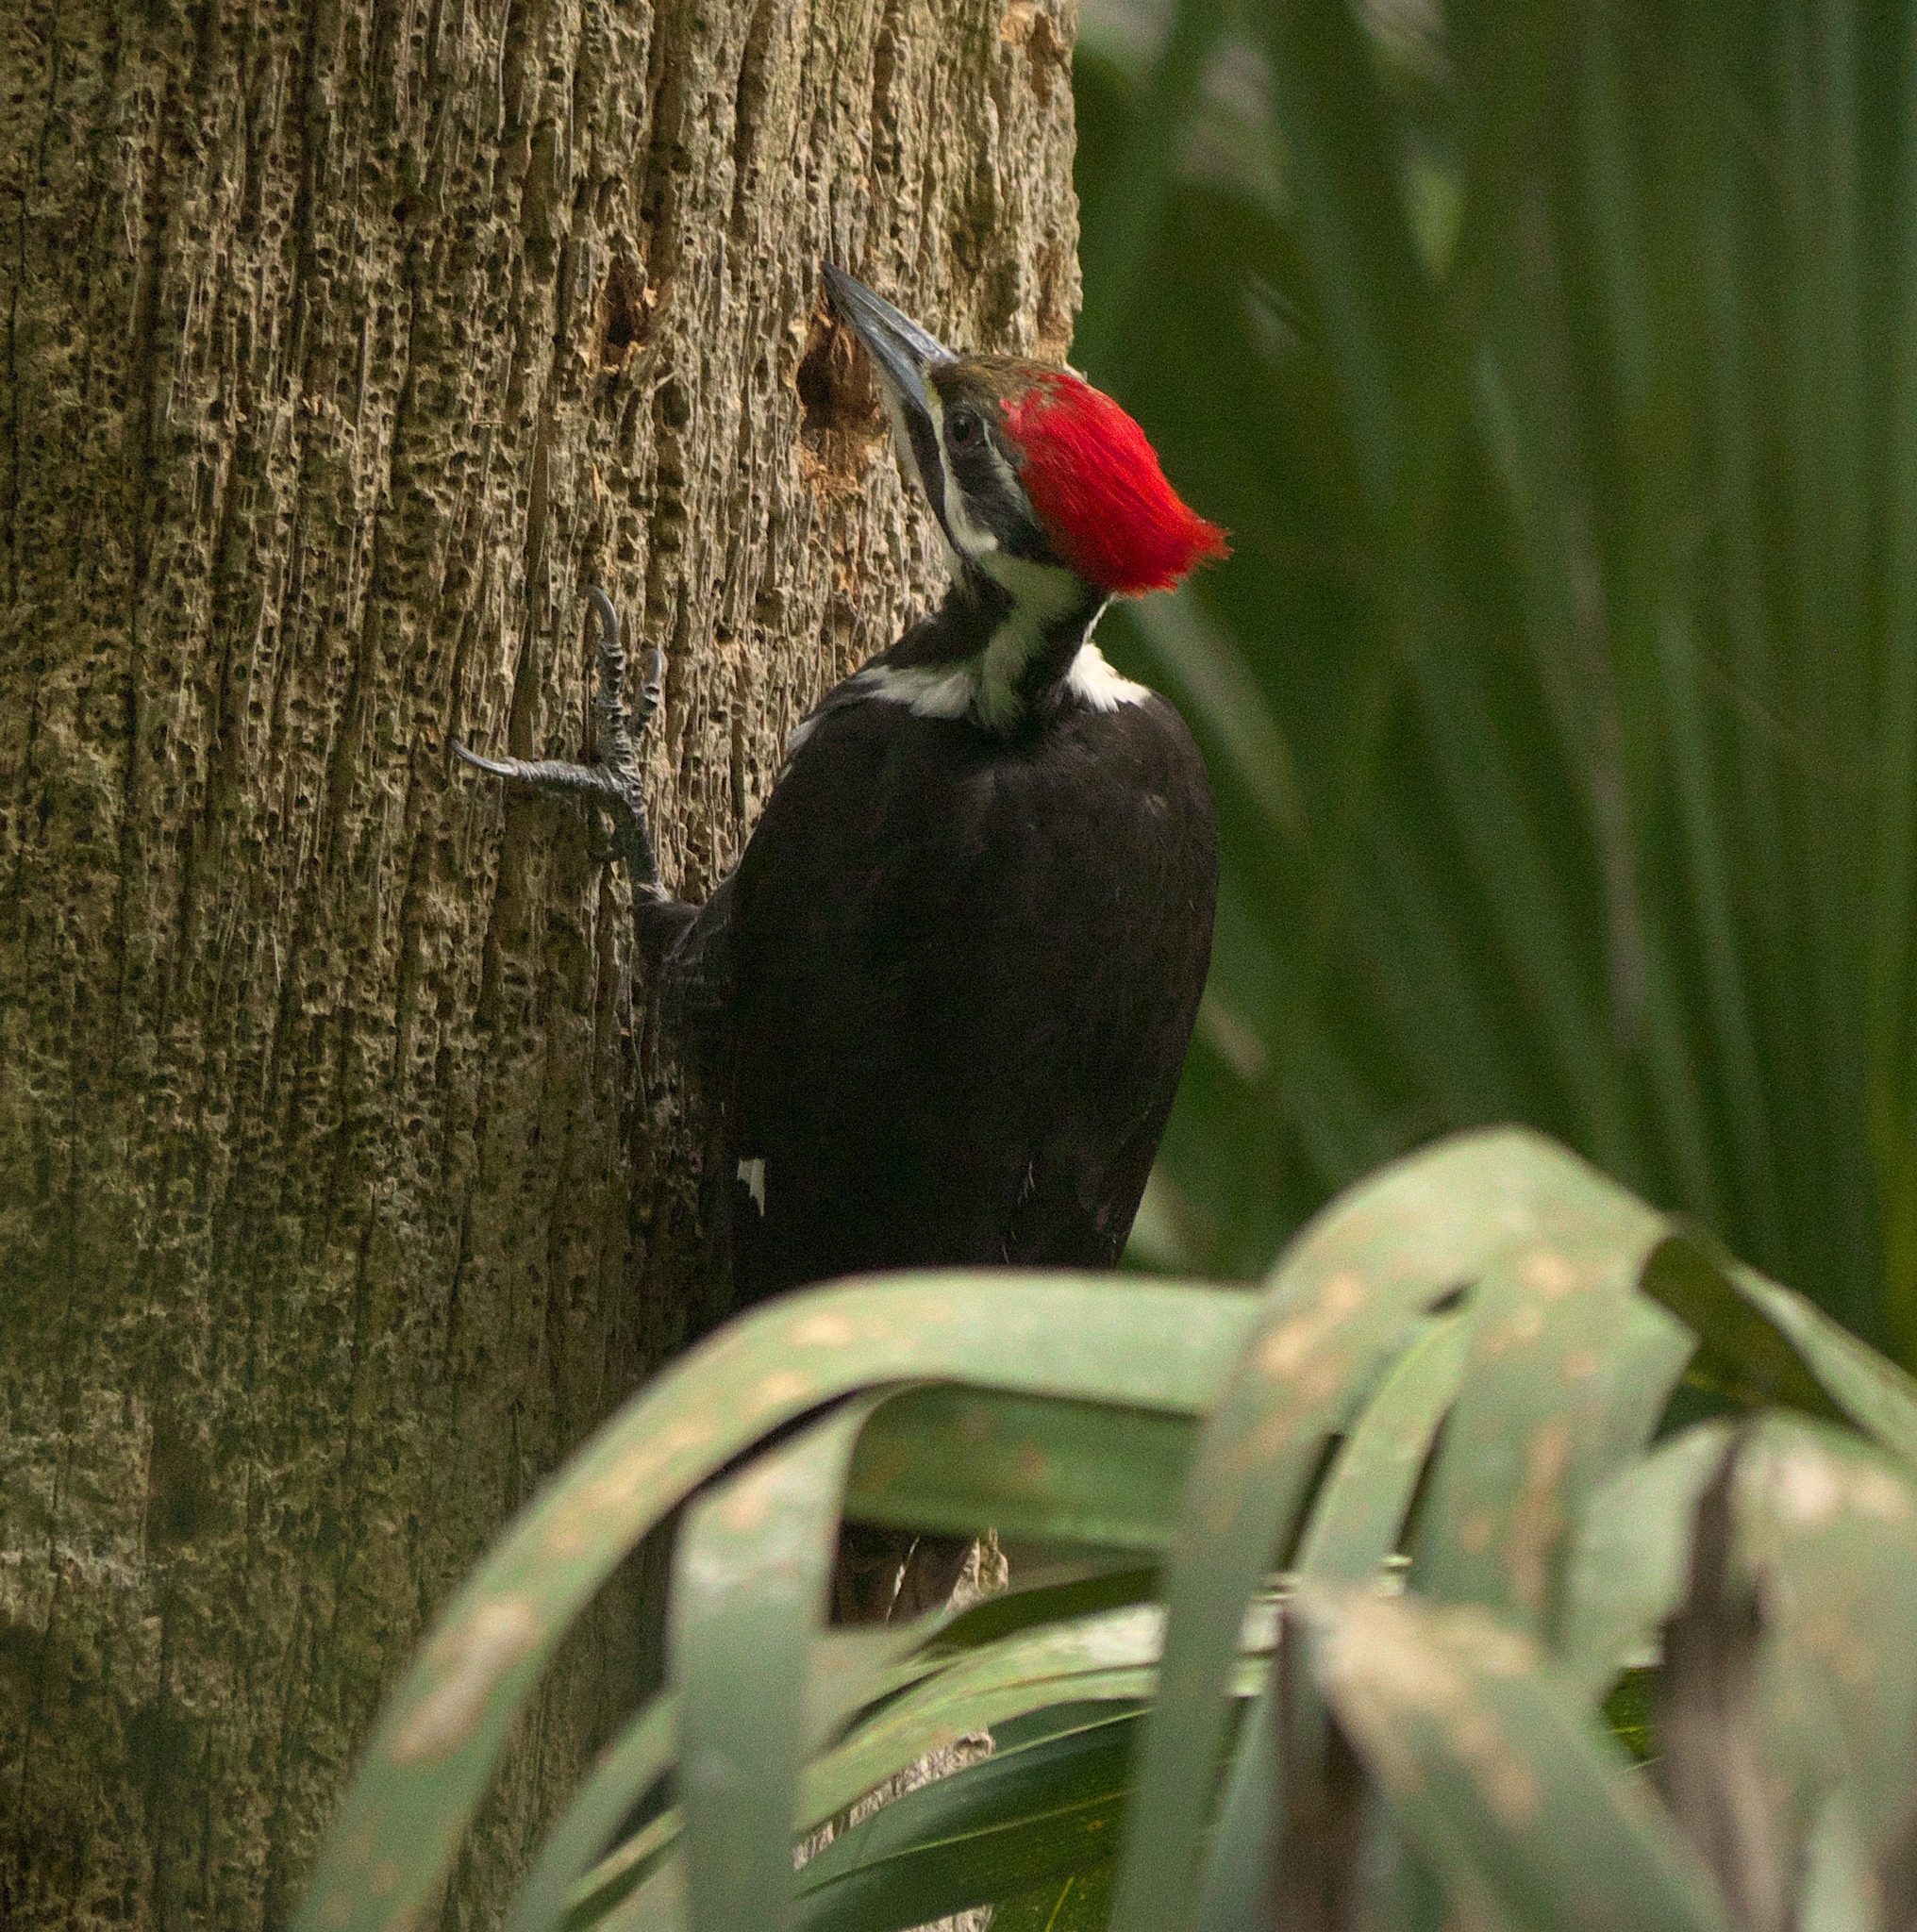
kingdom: Animalia
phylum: Chordata
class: Aves
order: Piciformes
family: Picidae
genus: Dryocopus
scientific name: Dryocopus pileatus
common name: Pileated woodpecker
